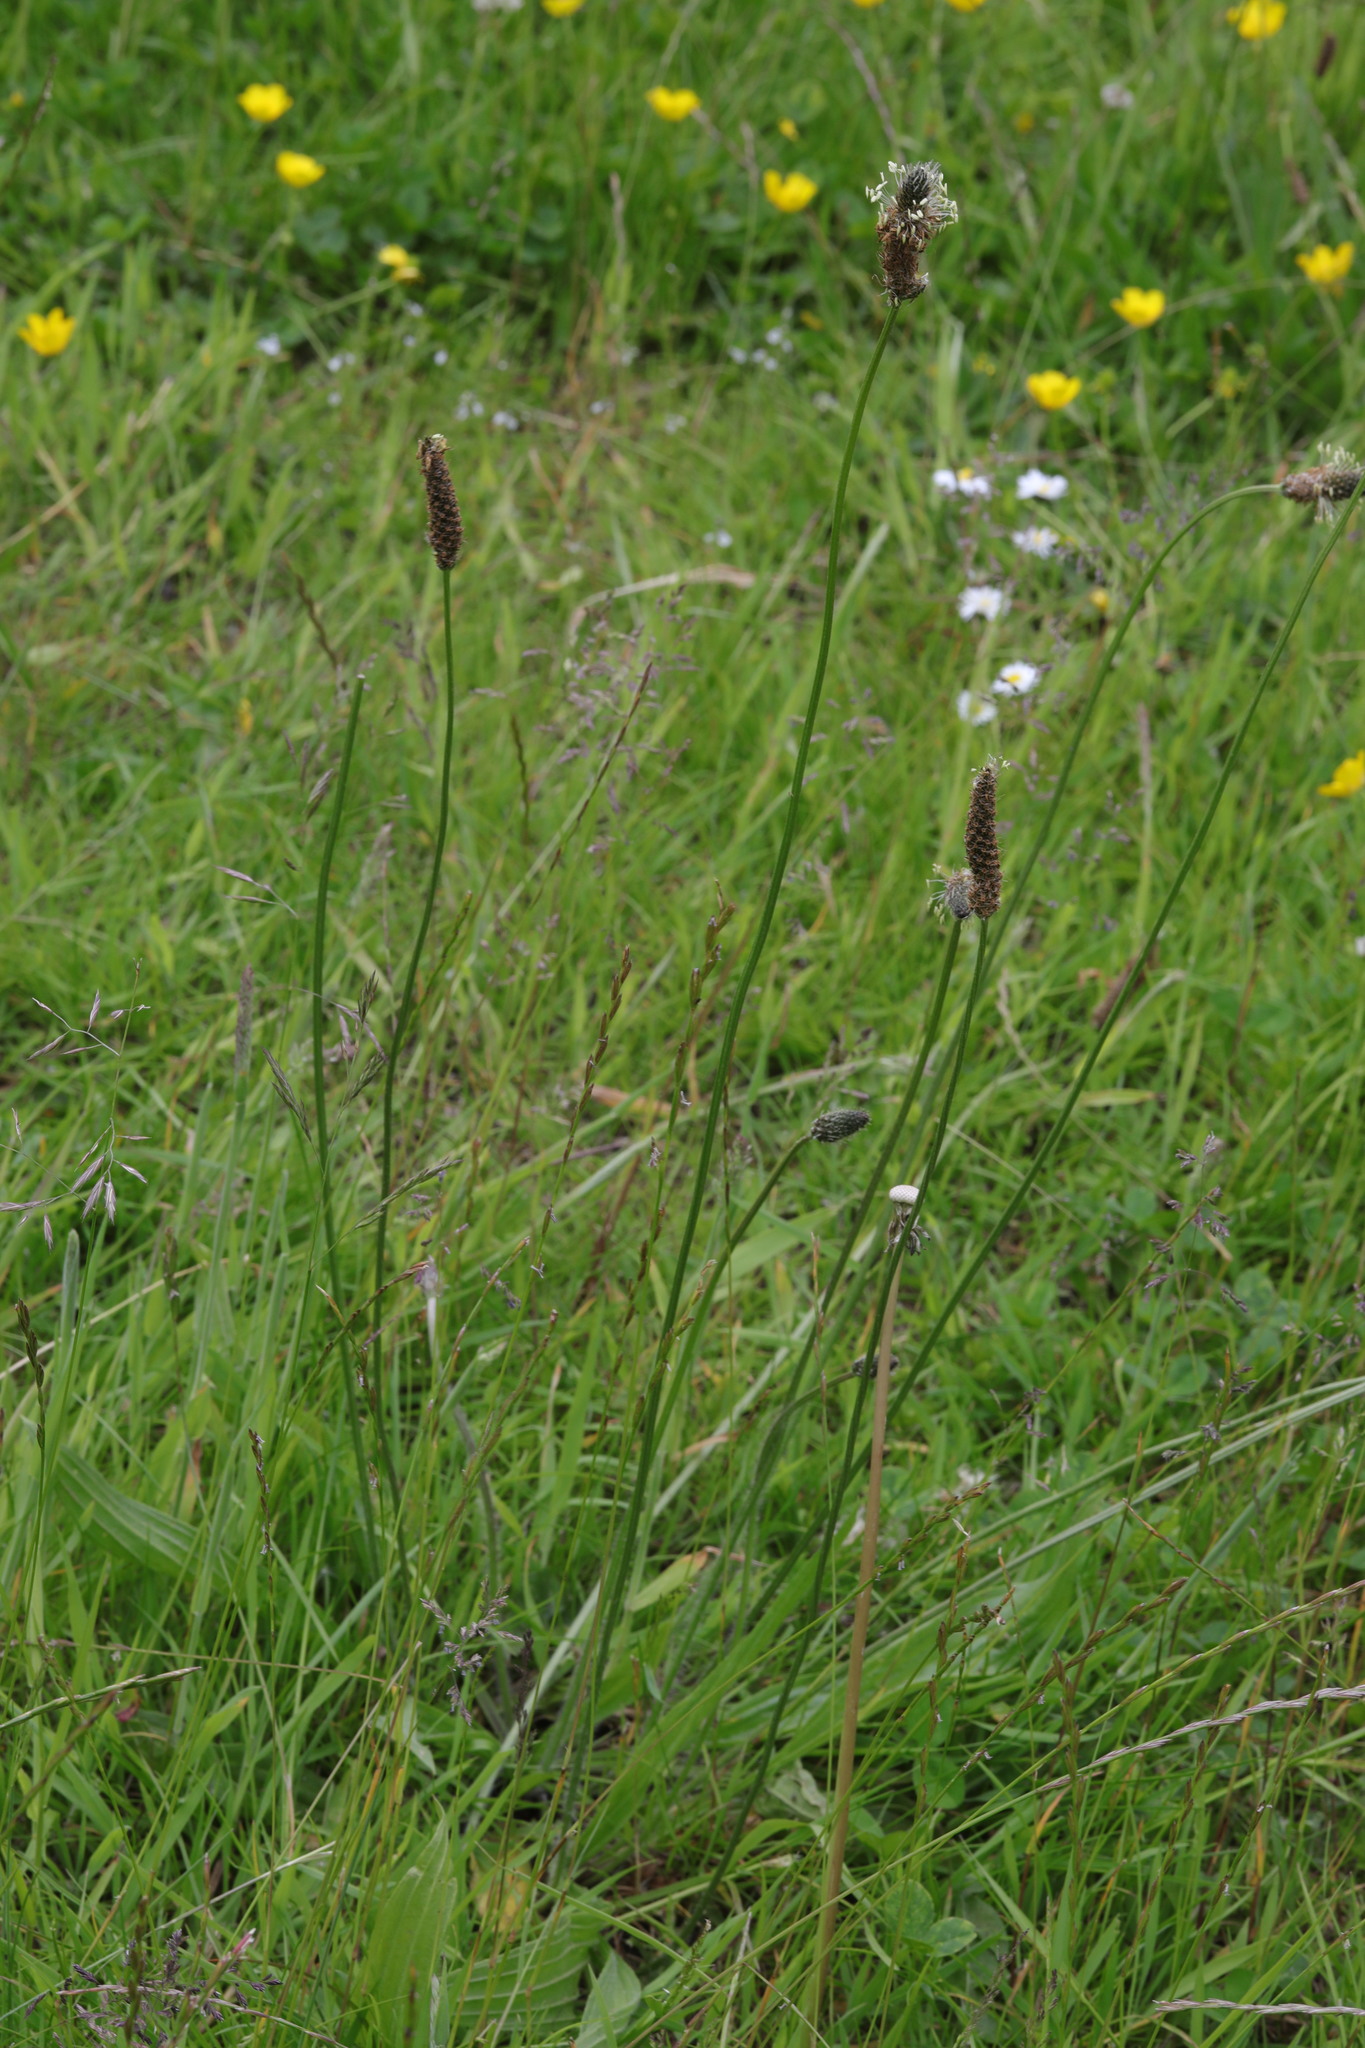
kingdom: Plantae
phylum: Tracheophyta
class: Magnoliopsida
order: Lamiales
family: Plantaginaceae
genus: Plantago
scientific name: Plantago lanceolata
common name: Ribwort plantain
